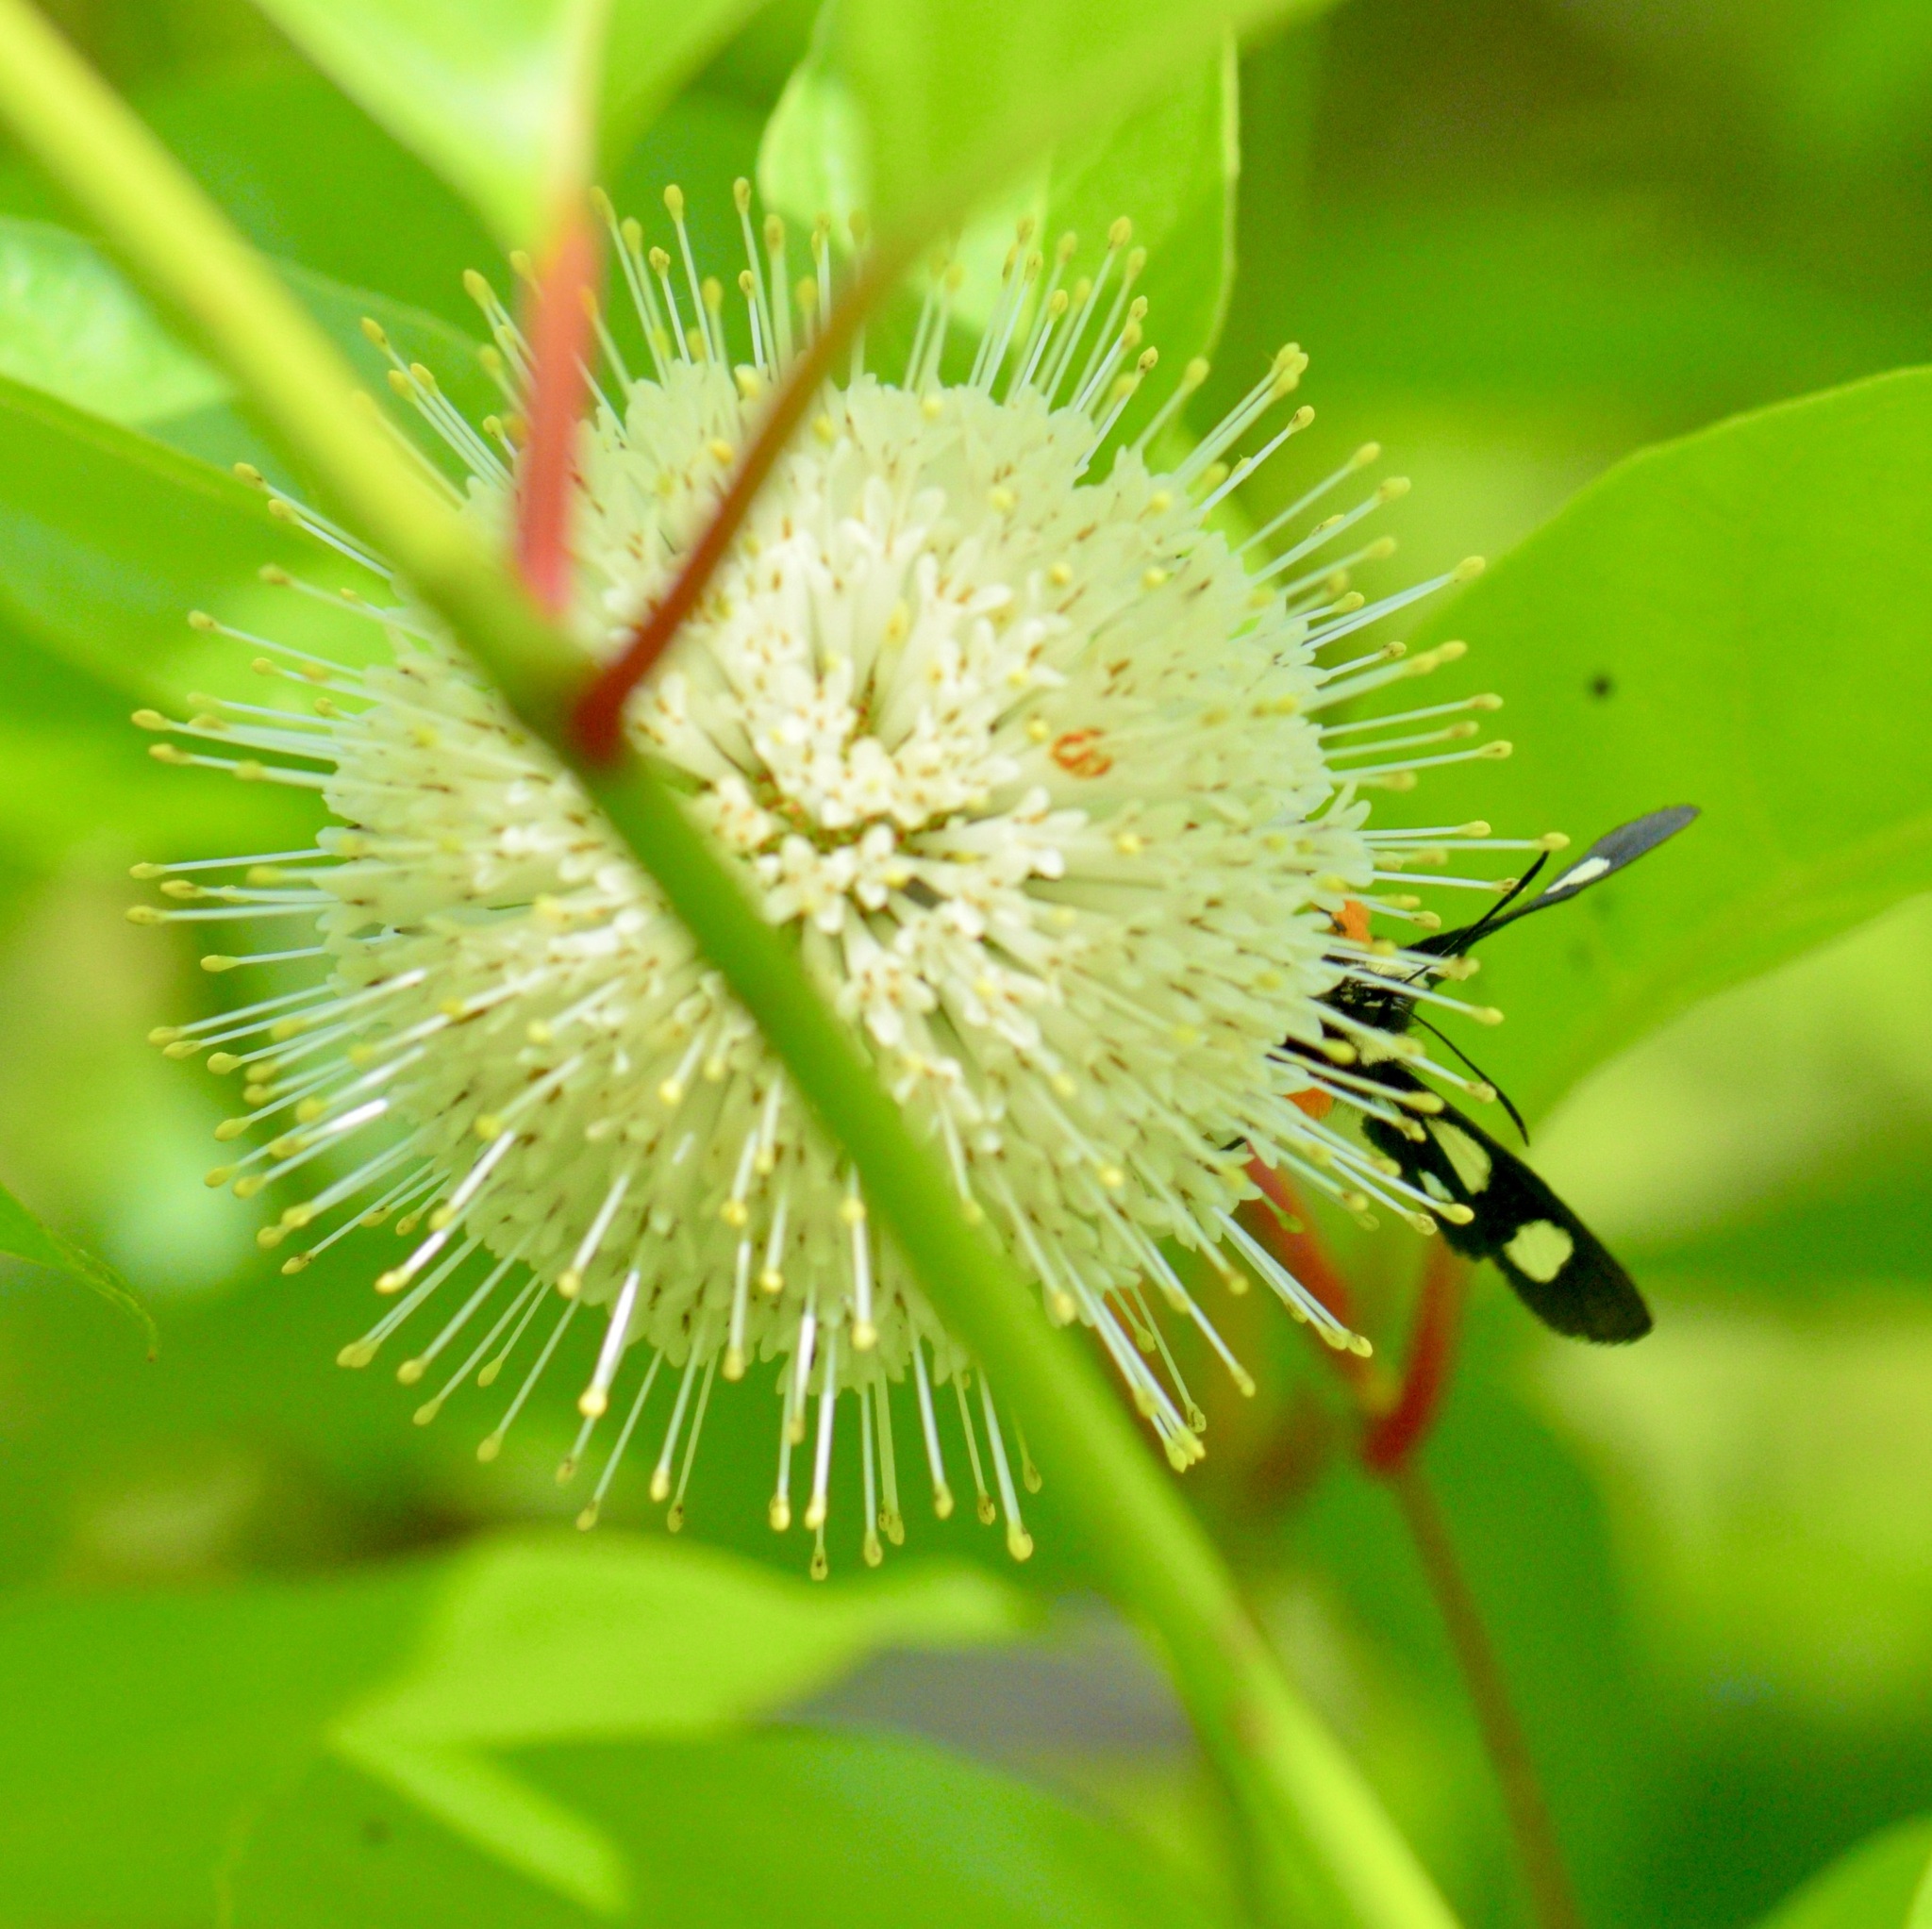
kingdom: Animalia
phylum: Arthropoda
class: Insecta
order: Lepidoptera
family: Noctuidae
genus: Alypia
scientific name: Alypia octomaculata
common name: Eight-spotted forester
